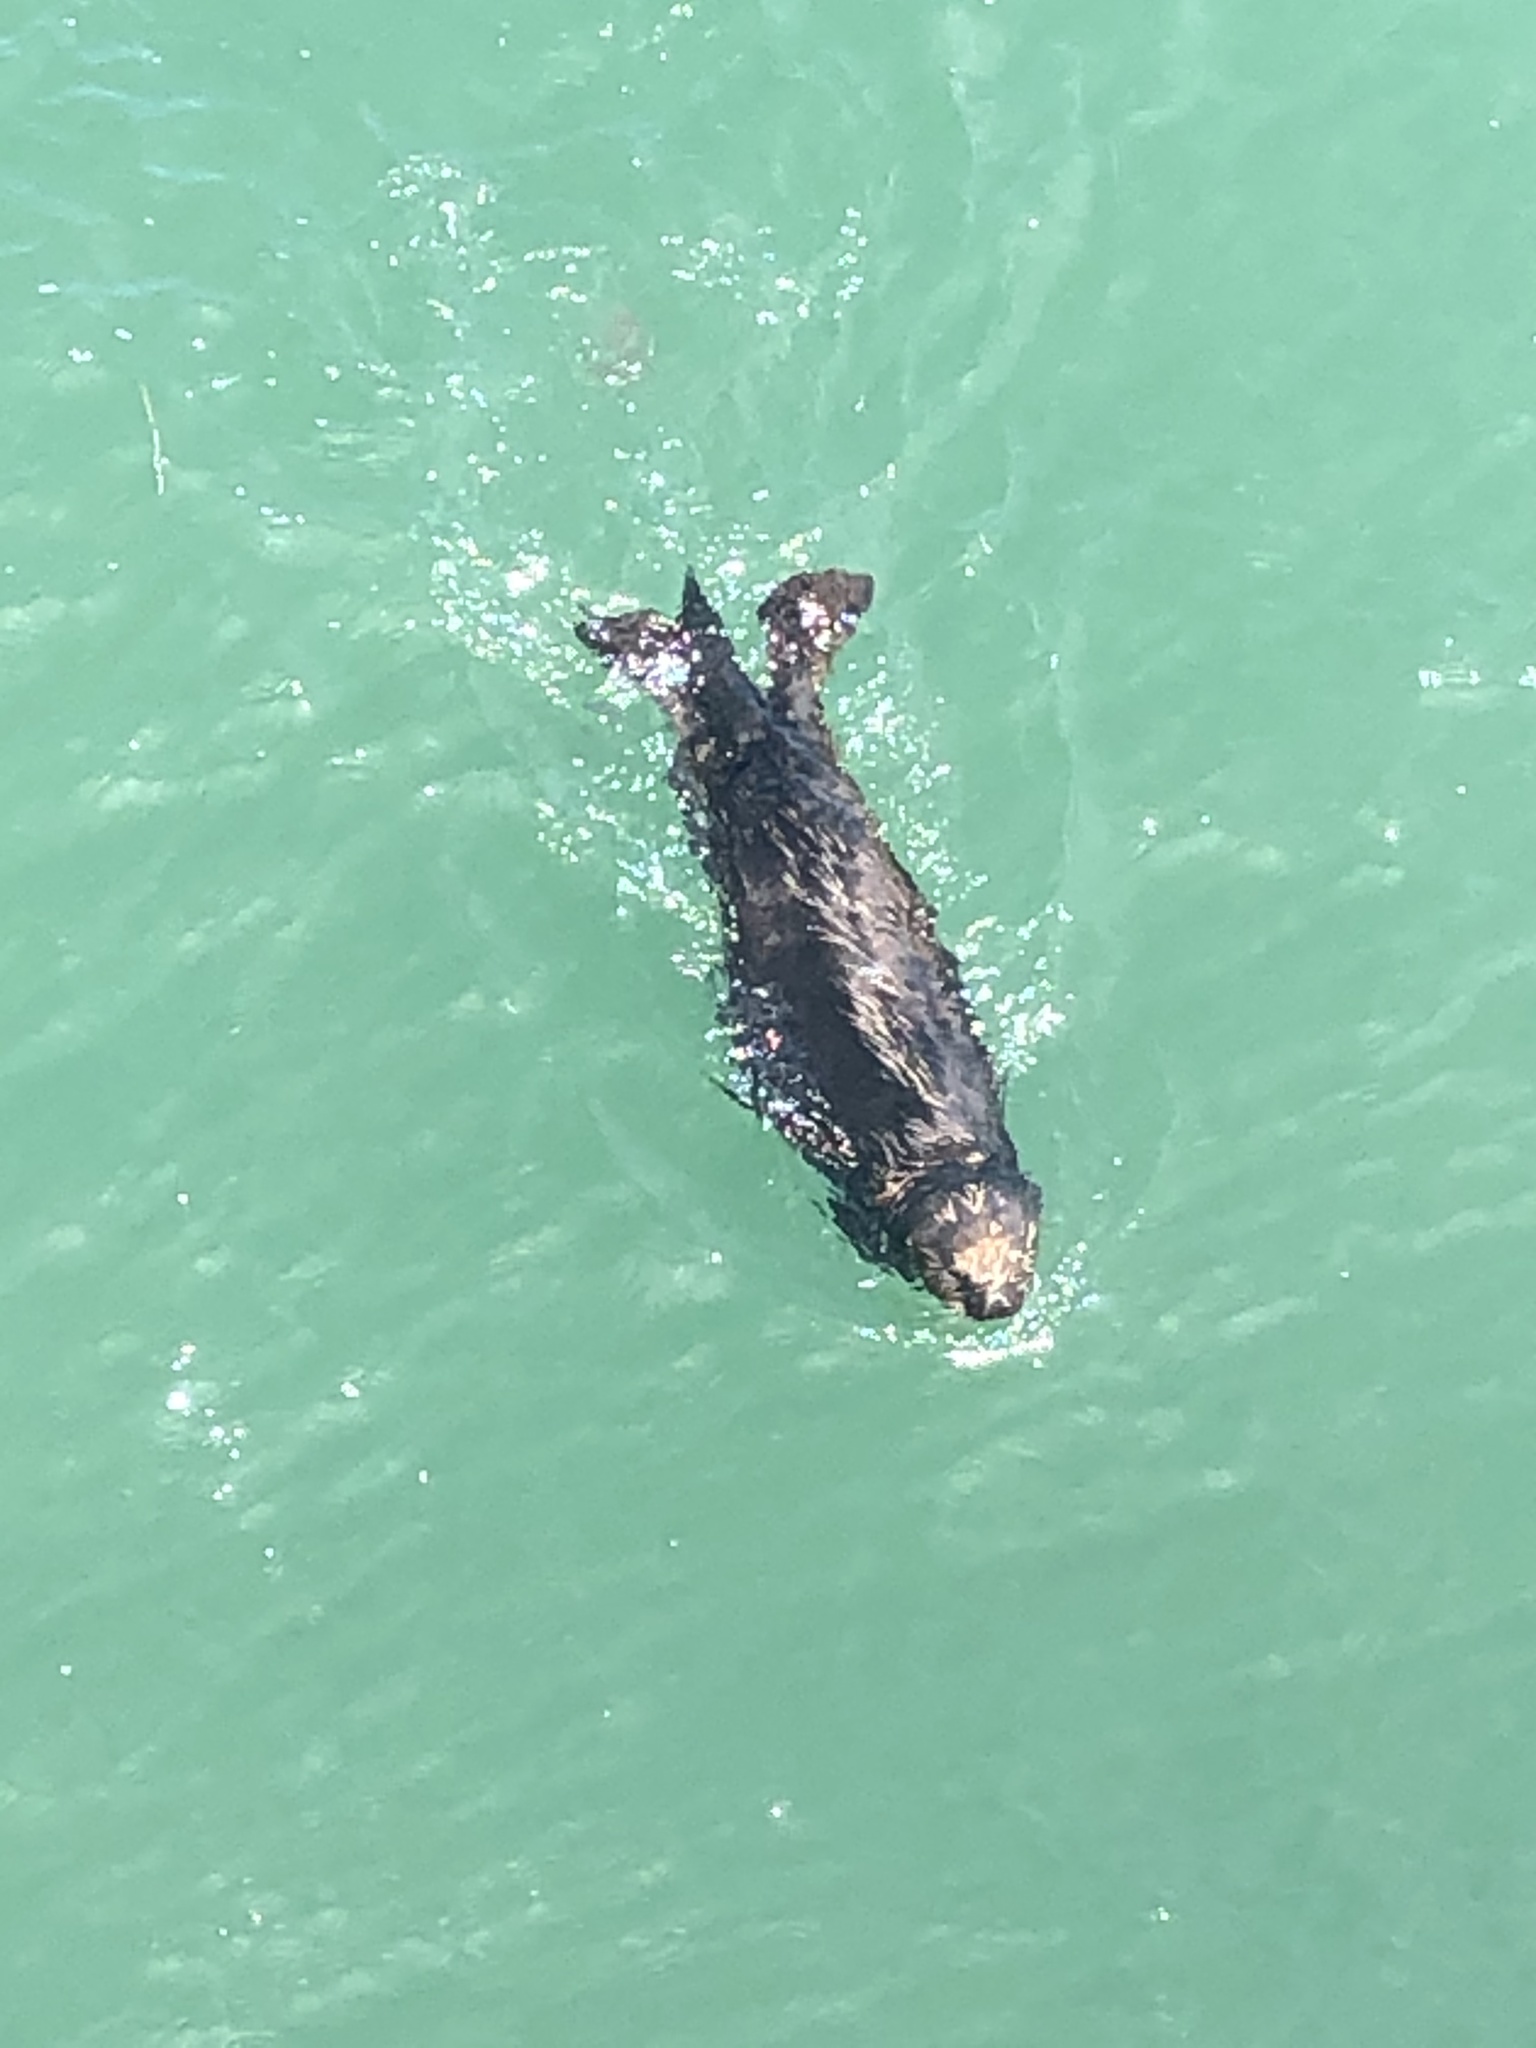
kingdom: Animalia
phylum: Chordata
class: Mammalia
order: Carnivora
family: Mustelidae
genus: Enhydra
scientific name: Enhydra lutris
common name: Sea otter
